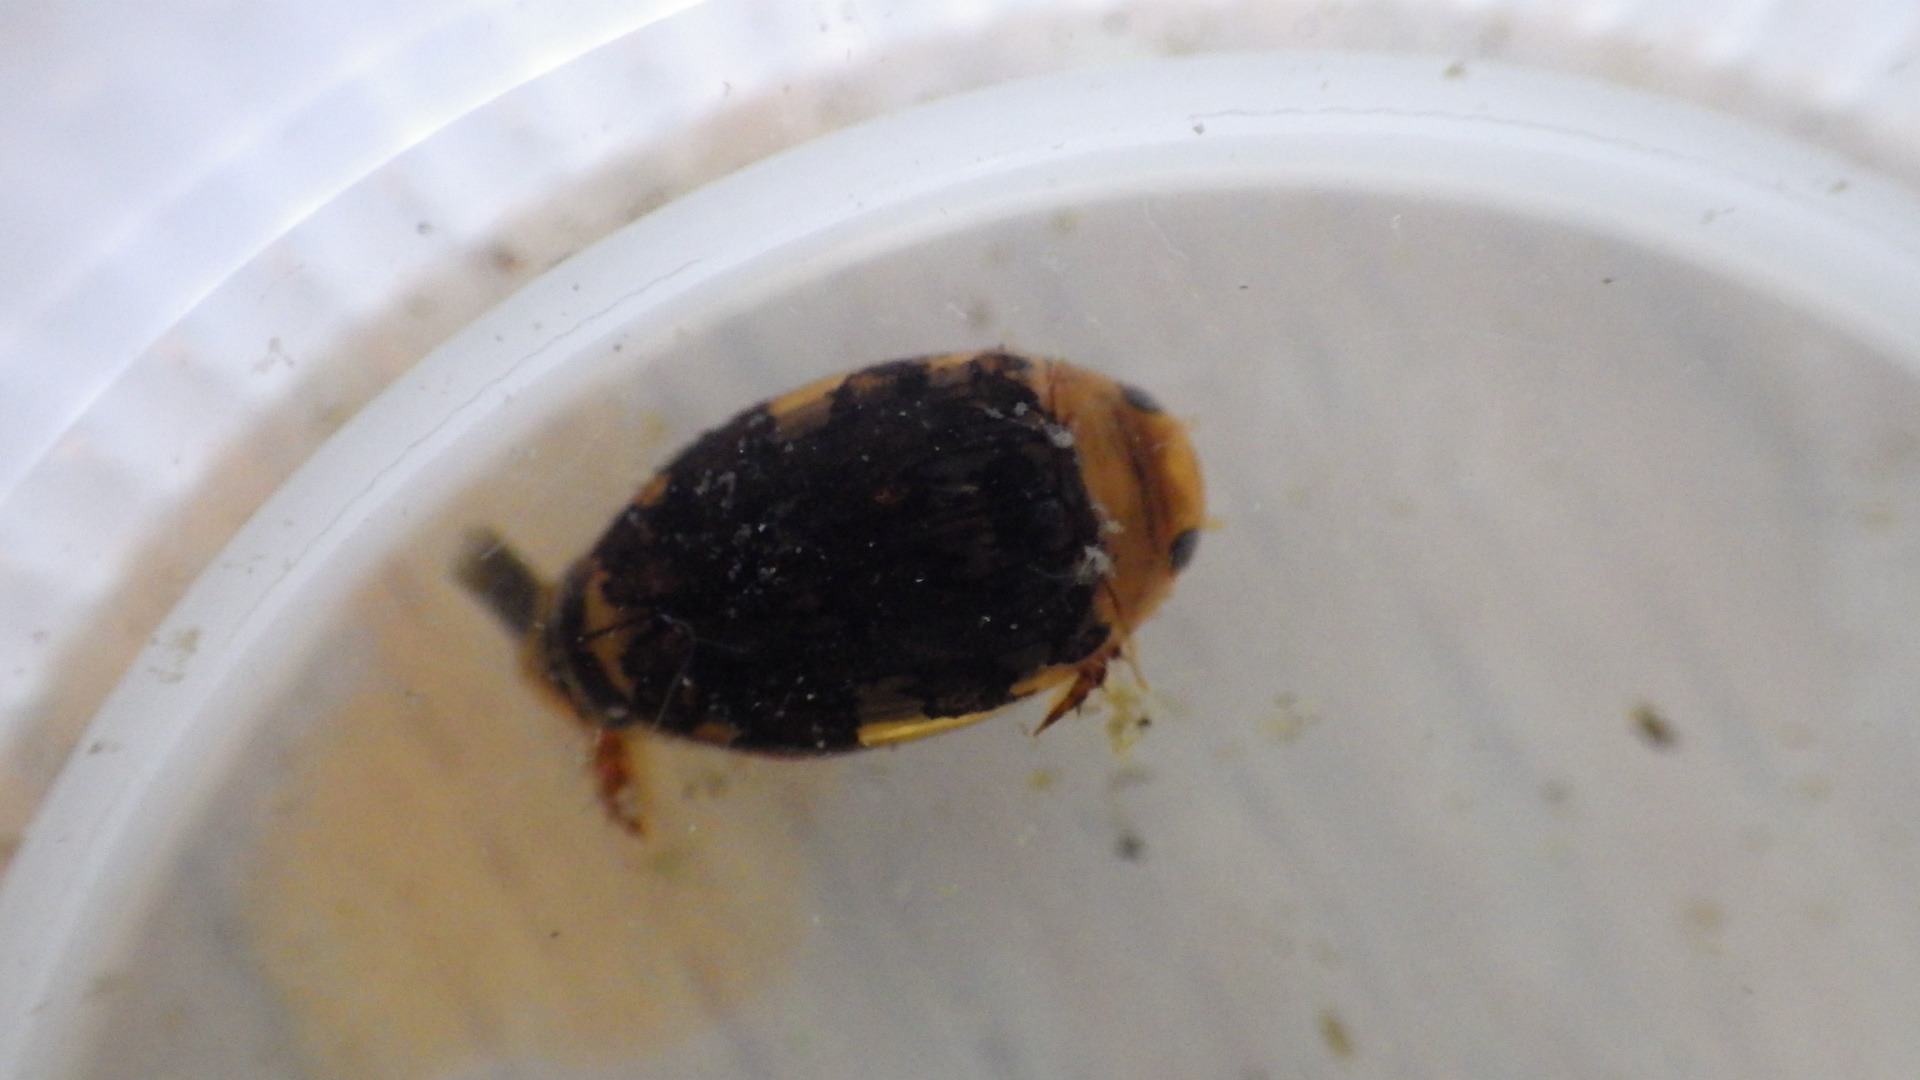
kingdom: Animalia
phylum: Arthropoda
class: Insecta
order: Coleoptera
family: Dytiscidae
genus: Laccophilus
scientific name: Laccophilus maculosus
